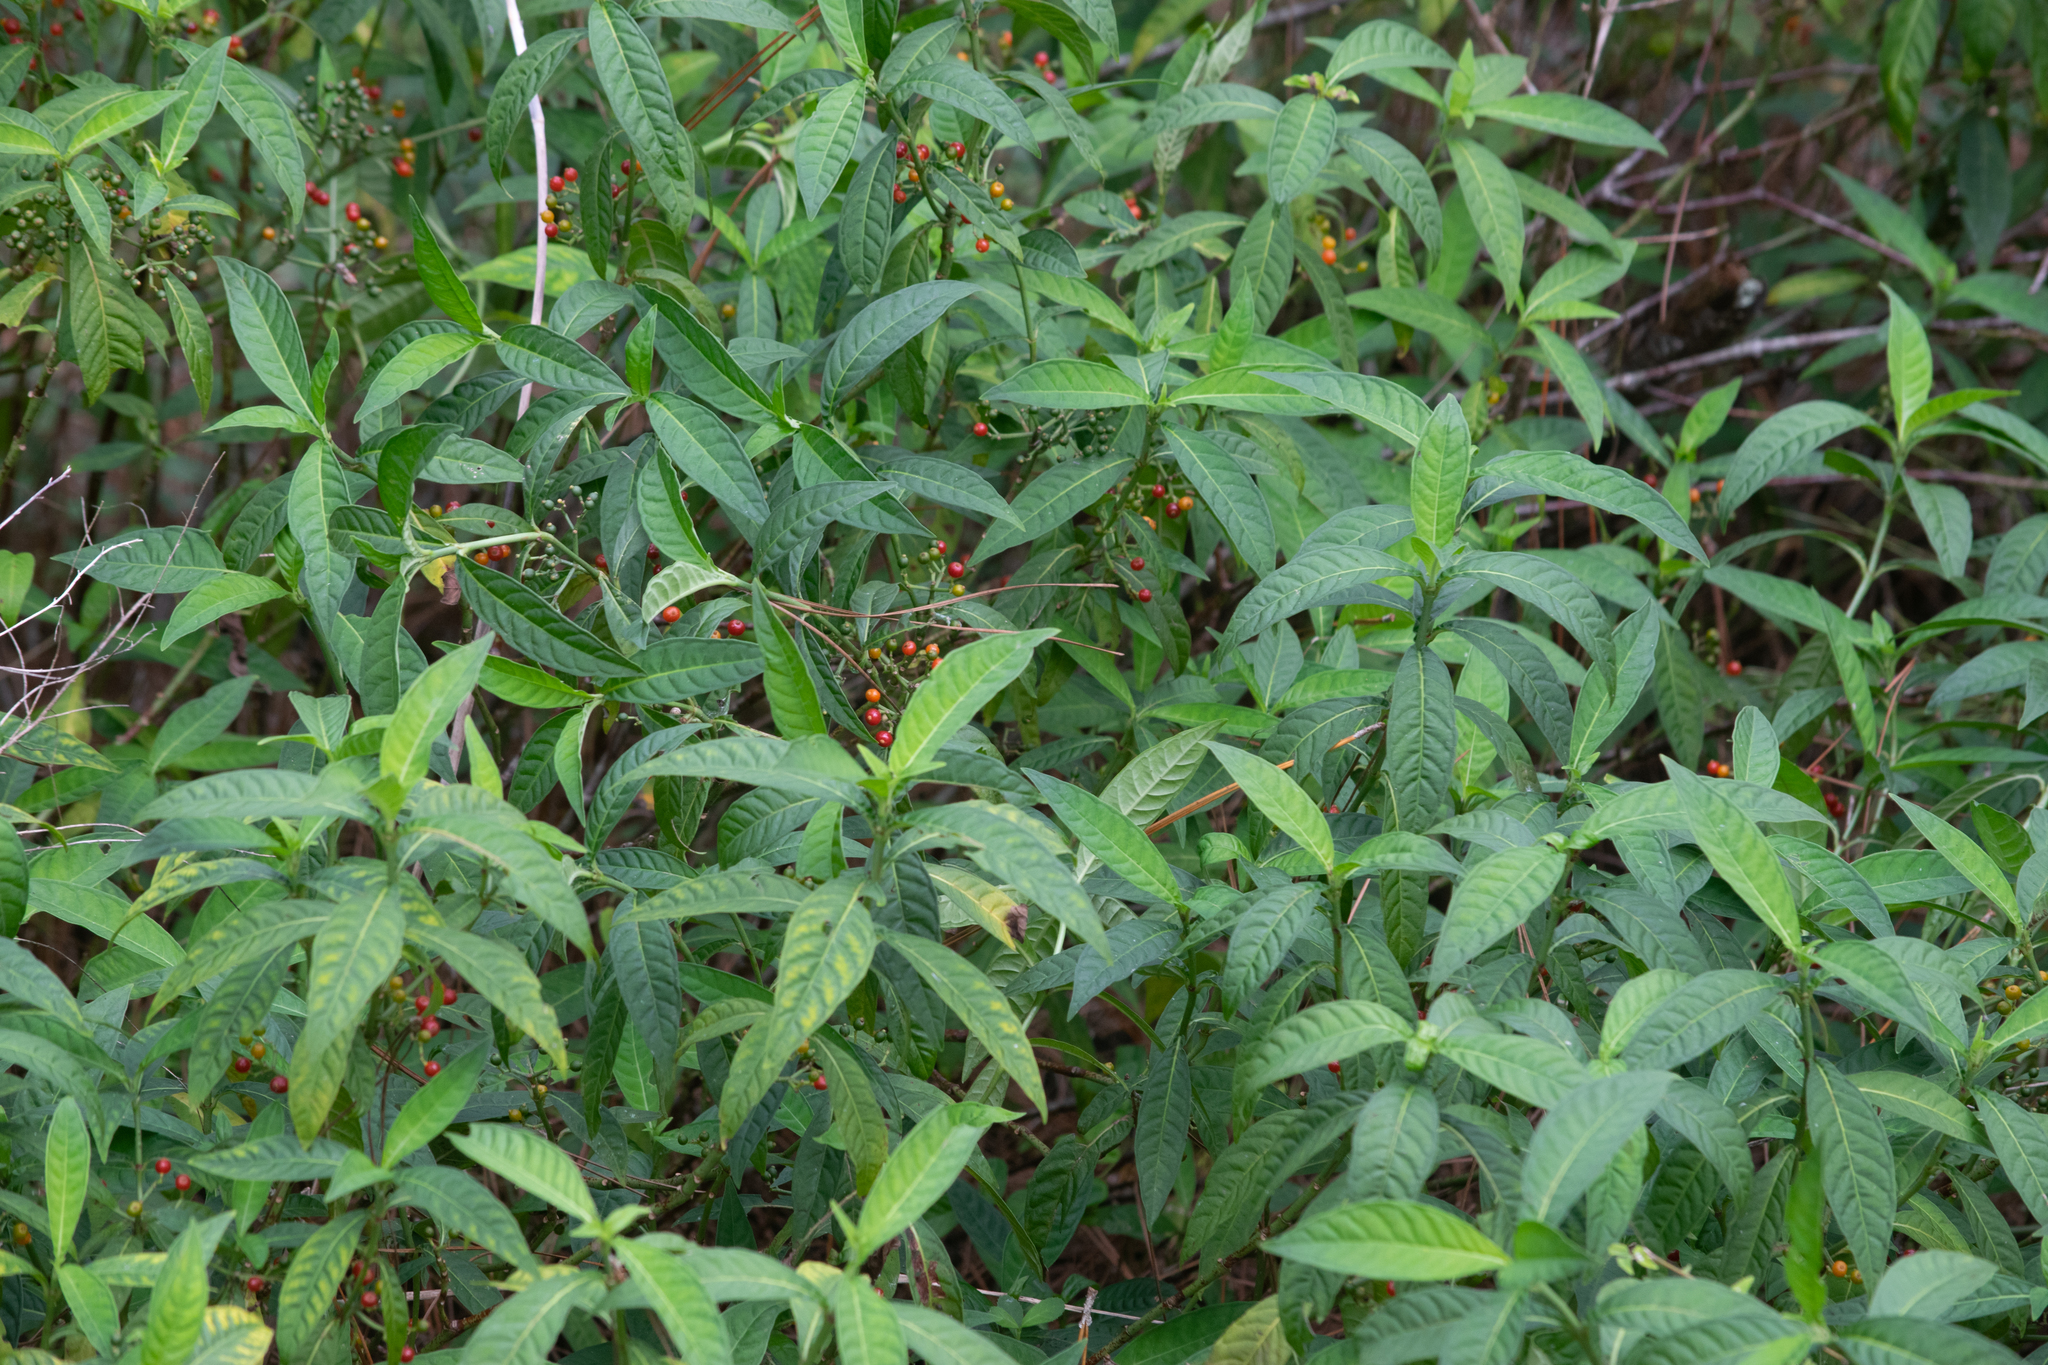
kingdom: Plantae
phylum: Tracheophyta
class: Magnoliopsida
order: Gentianales
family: Rubiaceae
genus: Psychotria
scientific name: Psychotria tenuifolia
